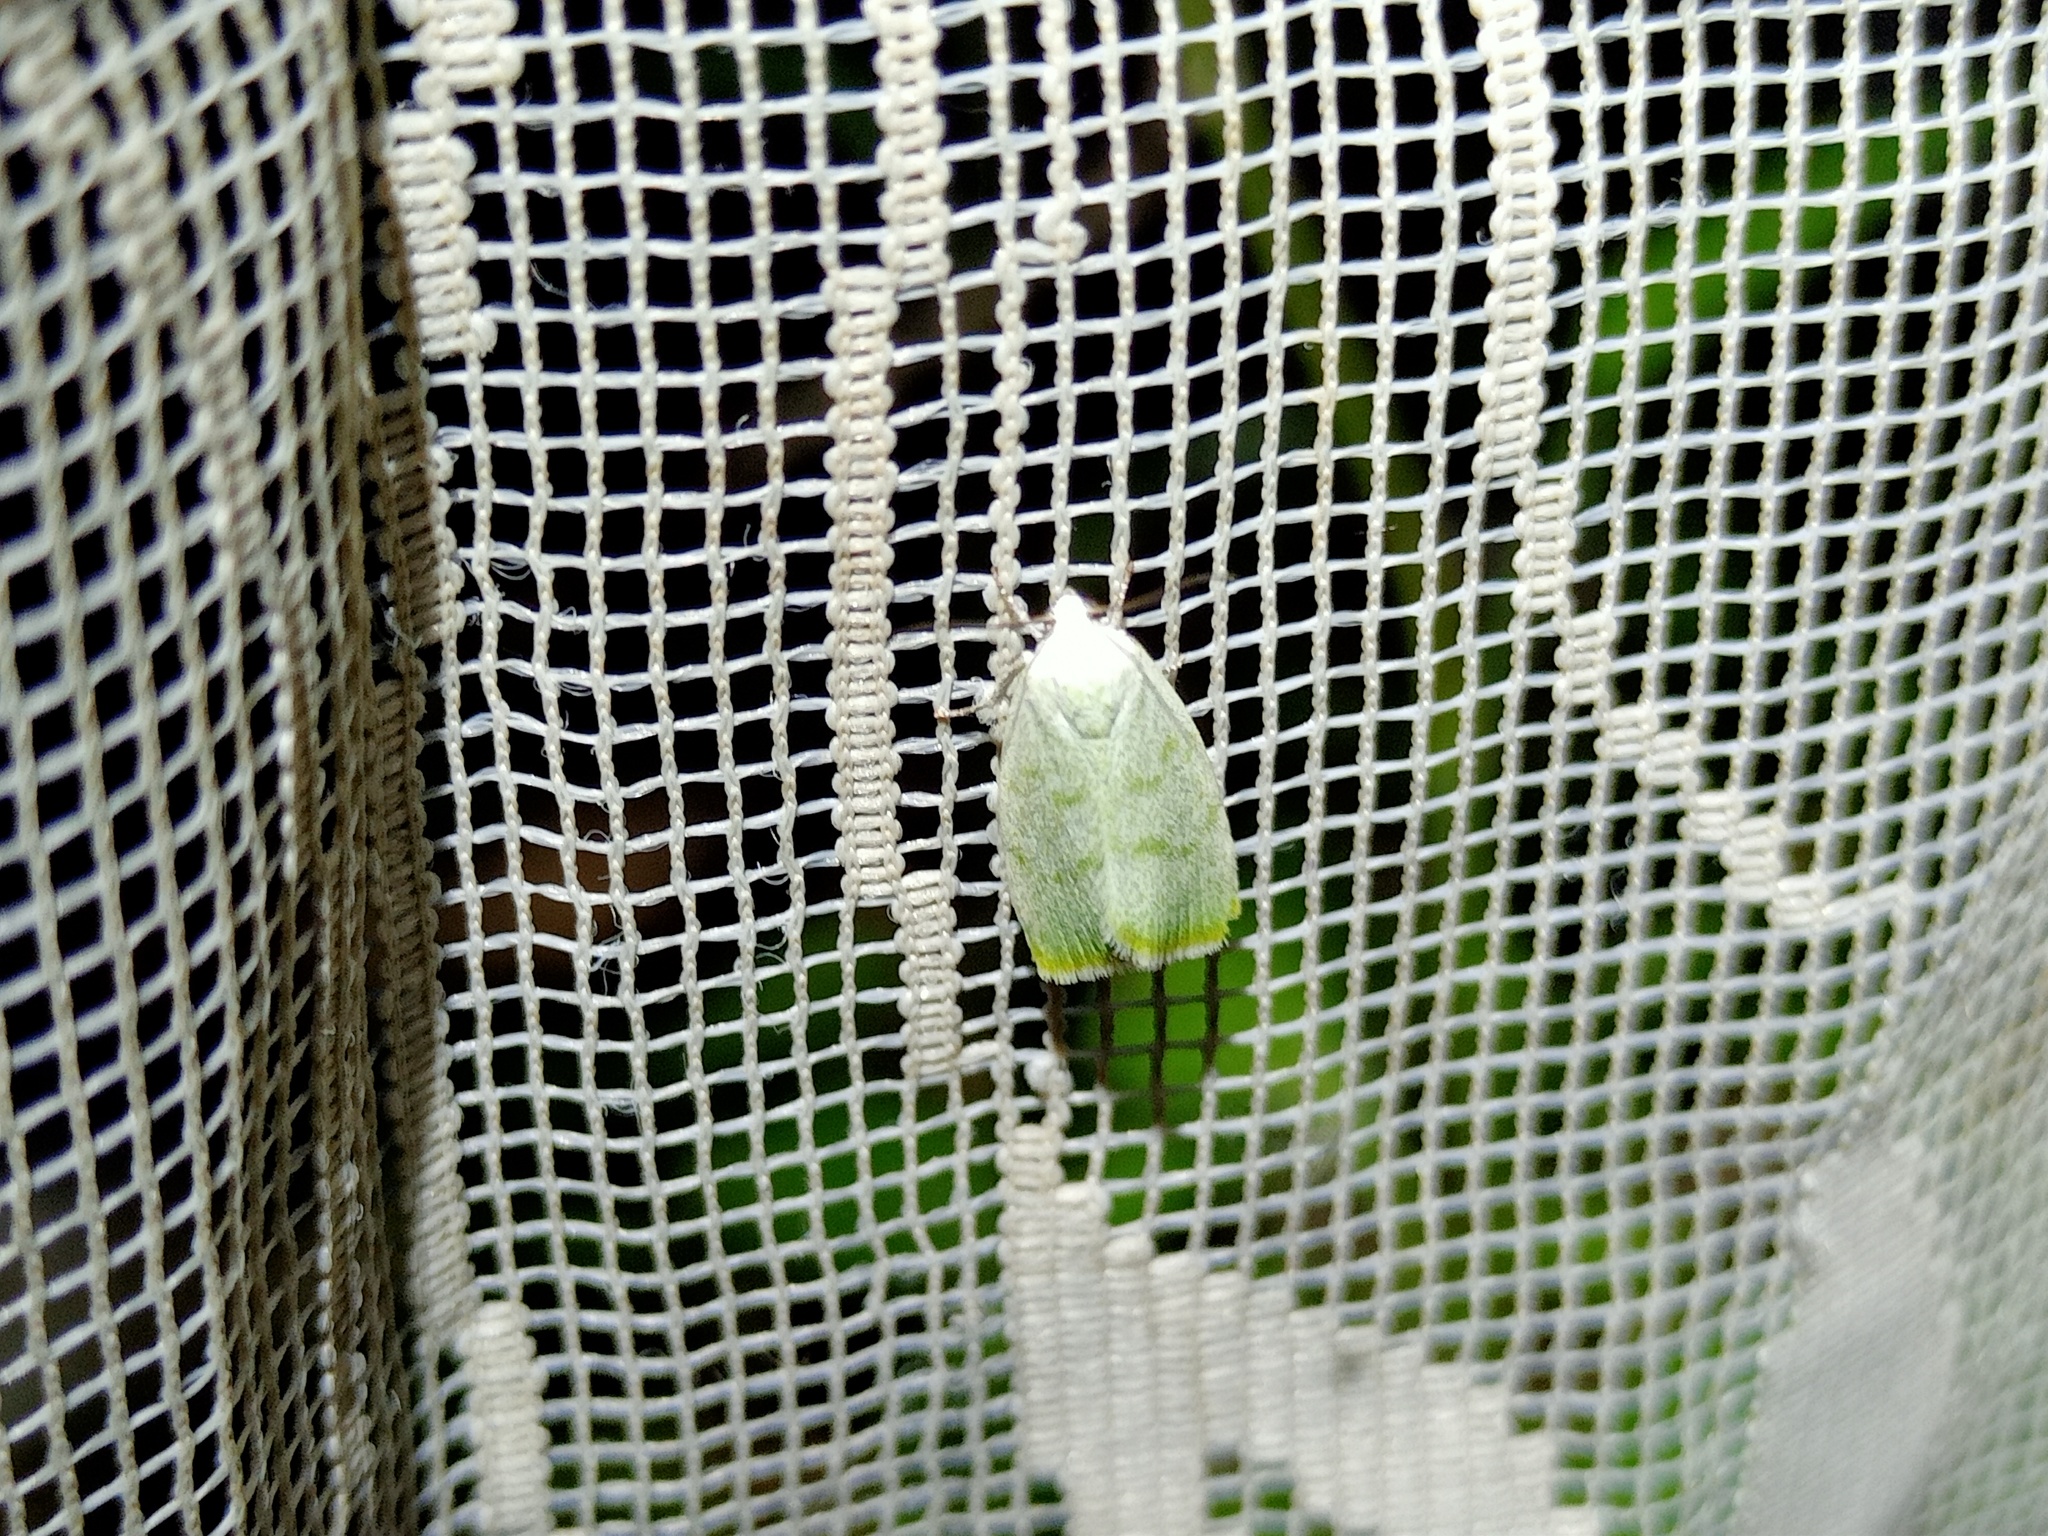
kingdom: Animalia
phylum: Arthropoda
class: Insecta
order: Lepidoptera
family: Nolidae
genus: Earias
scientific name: Earias vernana
